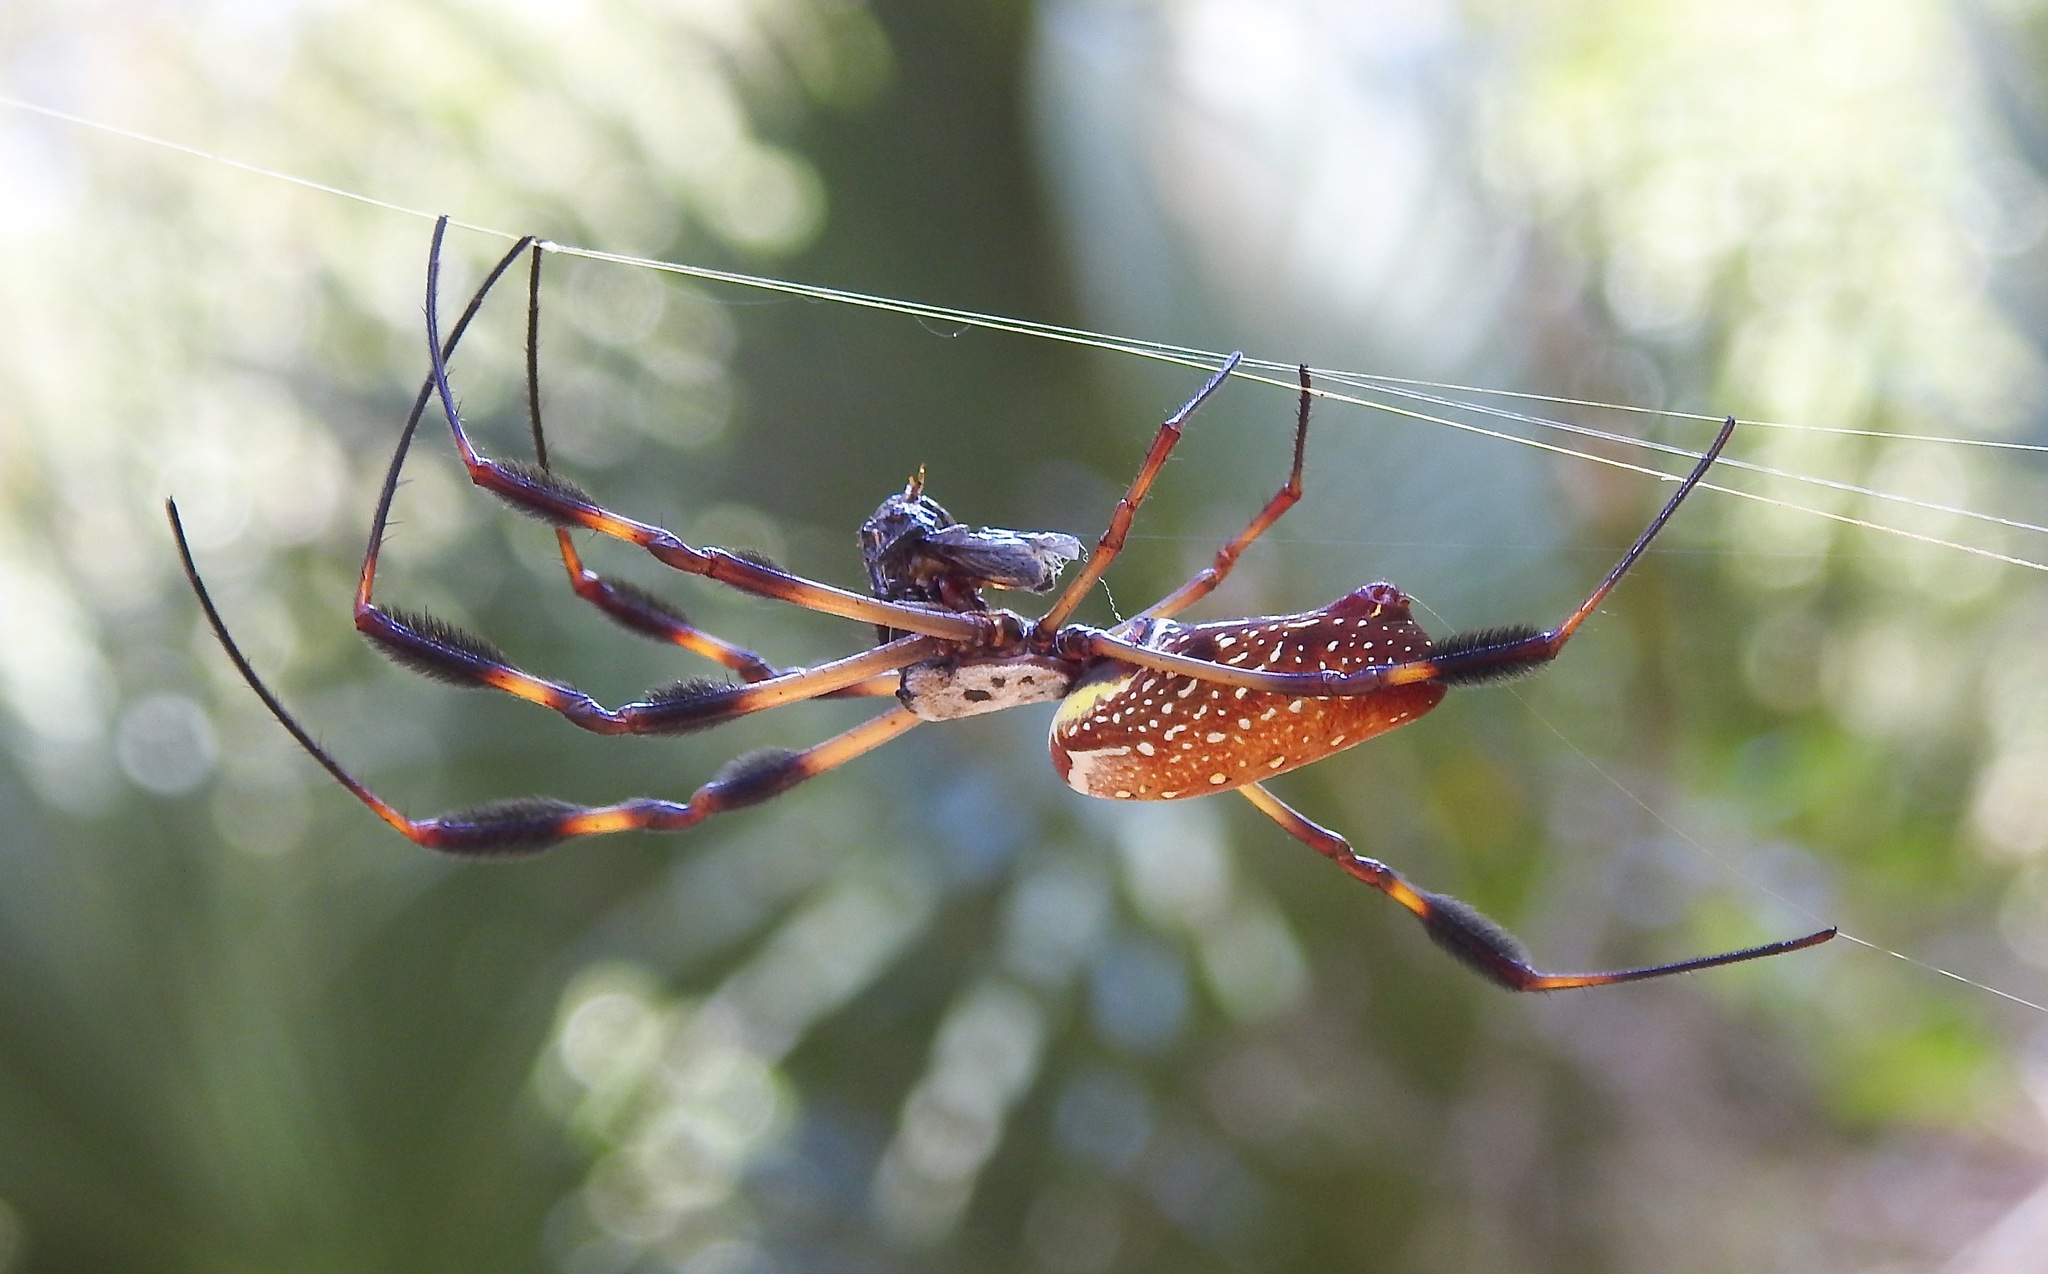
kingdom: Animalia
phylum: Arthropoda
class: Arachnida
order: Araneae
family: Araneidae
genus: Trichonephila
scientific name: Trichonephila clavipes
